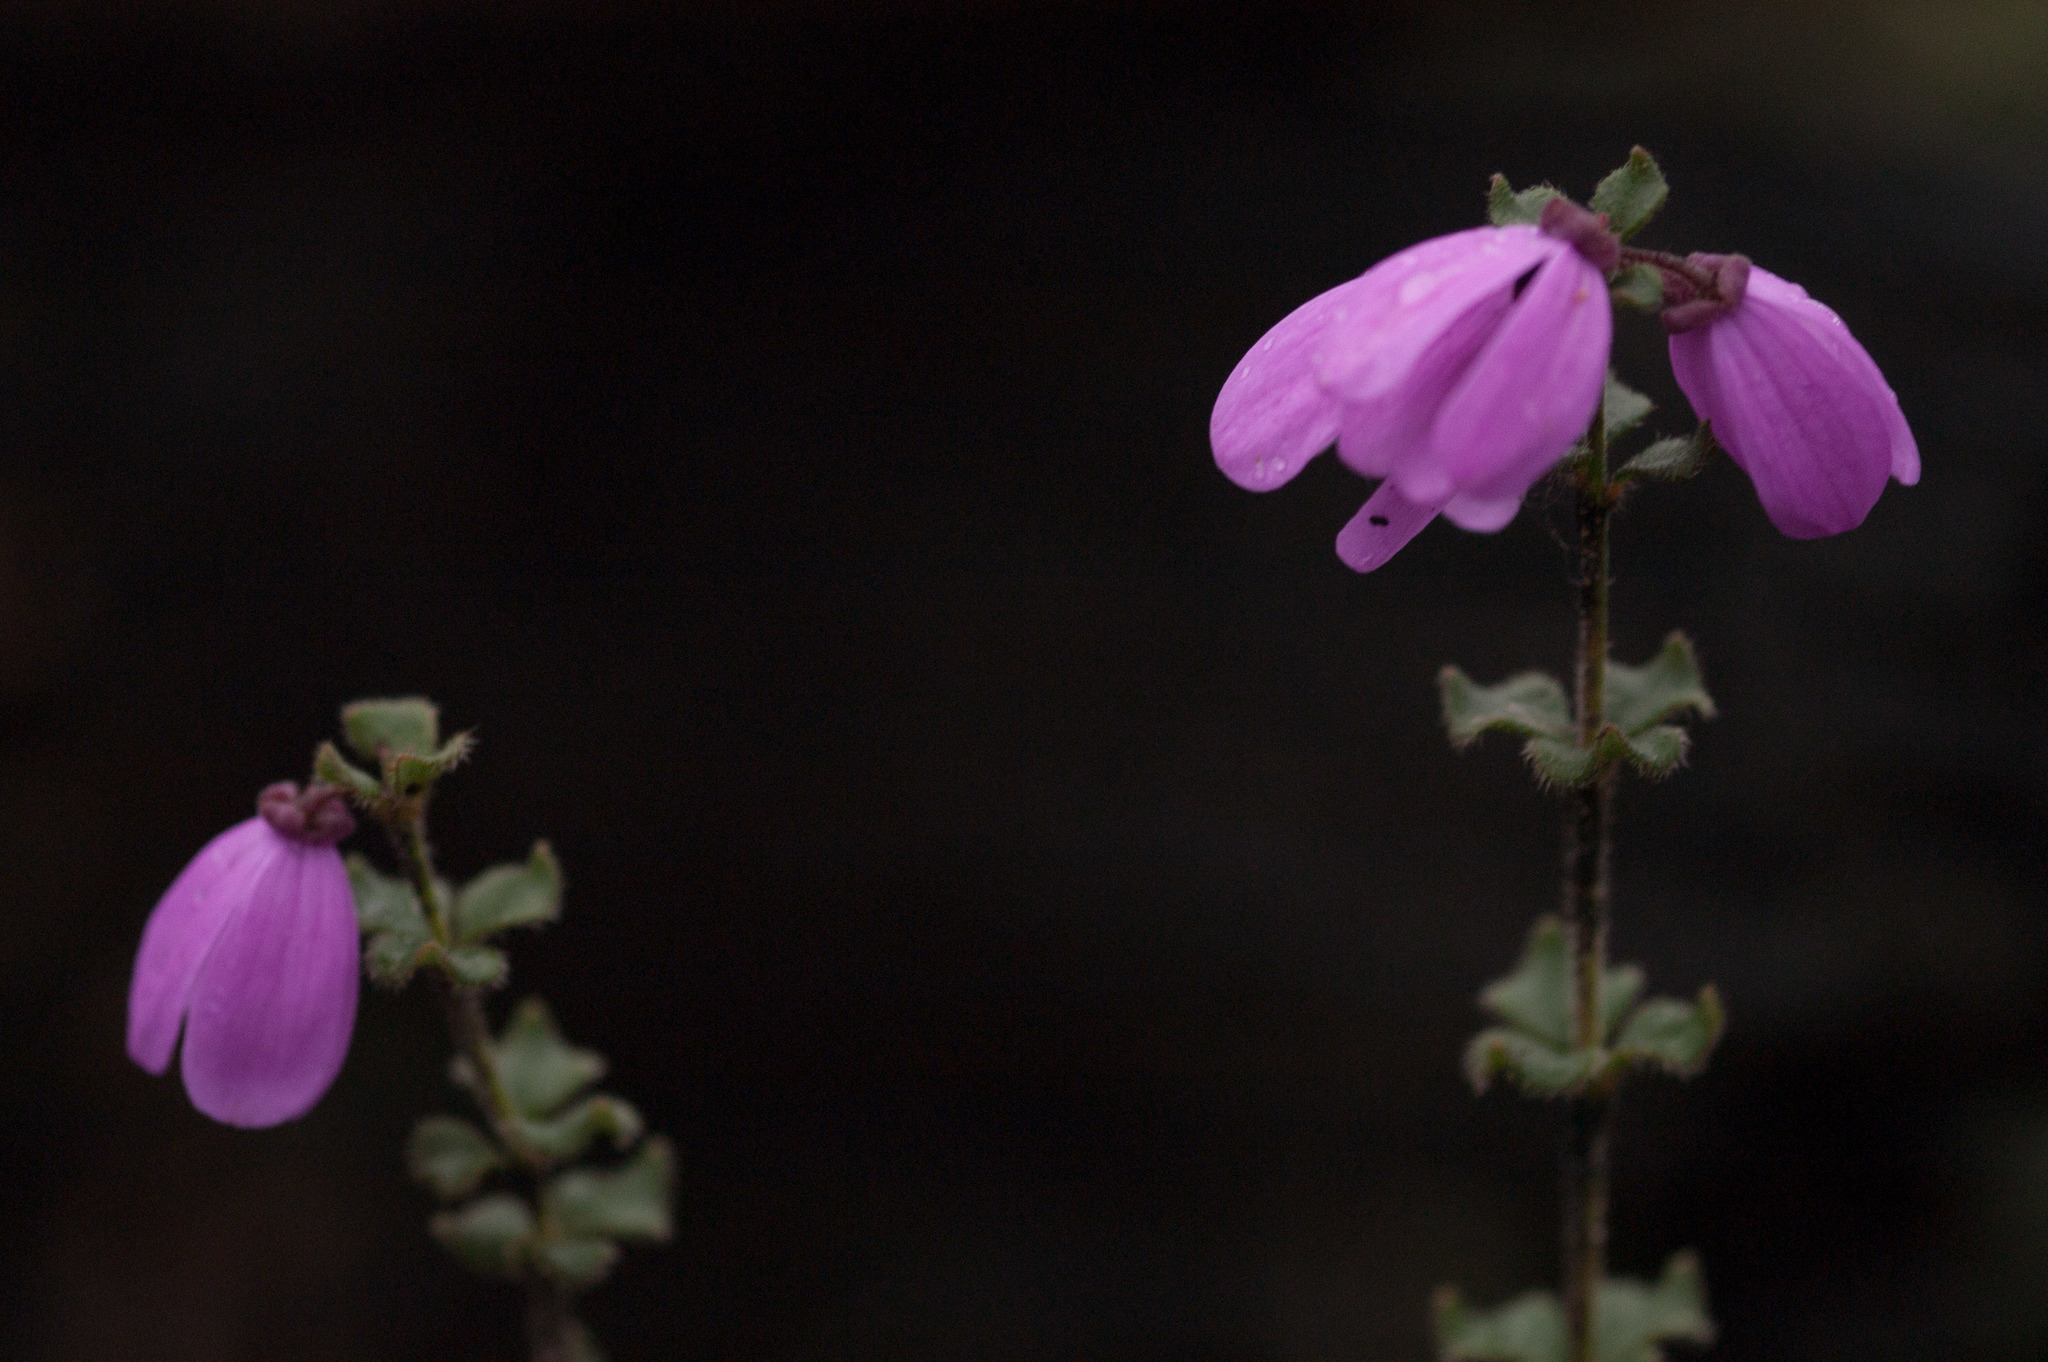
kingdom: Plantae
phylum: Tracheophyta
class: Magnoliopsida
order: Oxalidales
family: Elaeocarpaceae
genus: Tetratheca
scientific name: Tetratheca ciliata
